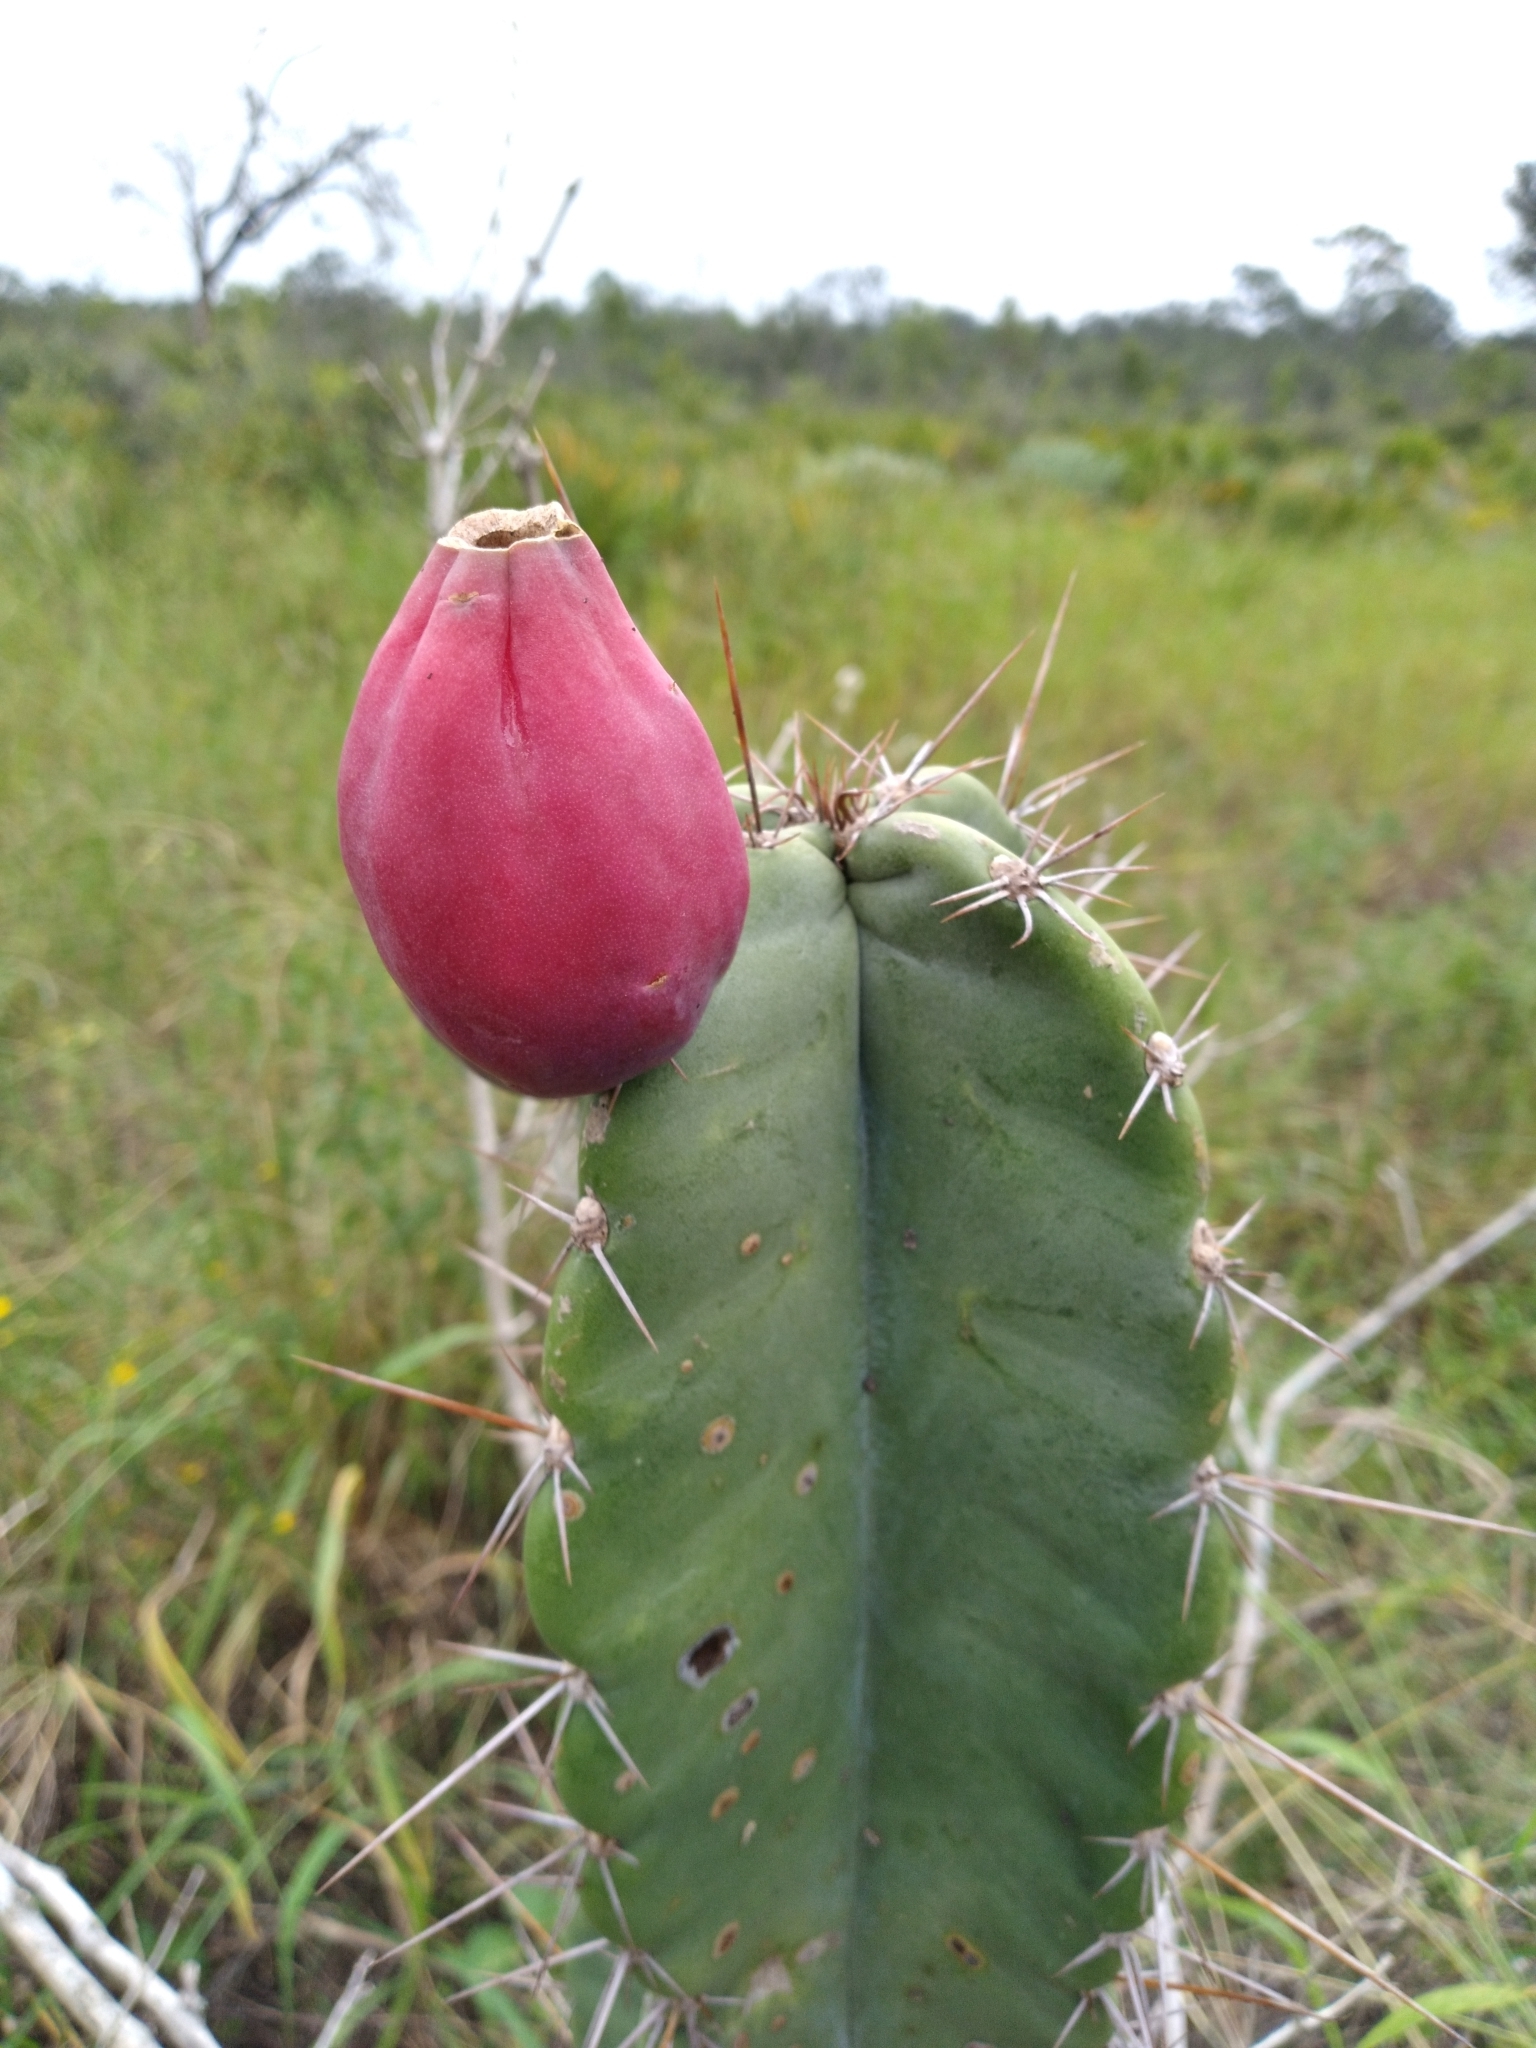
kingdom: Plantae
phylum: Tracheophyta
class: Magnoliopsida
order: Caryophyllales
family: Cactaceae
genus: Cereus
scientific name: Cereus hexagonus
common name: Lady of the night cactus
